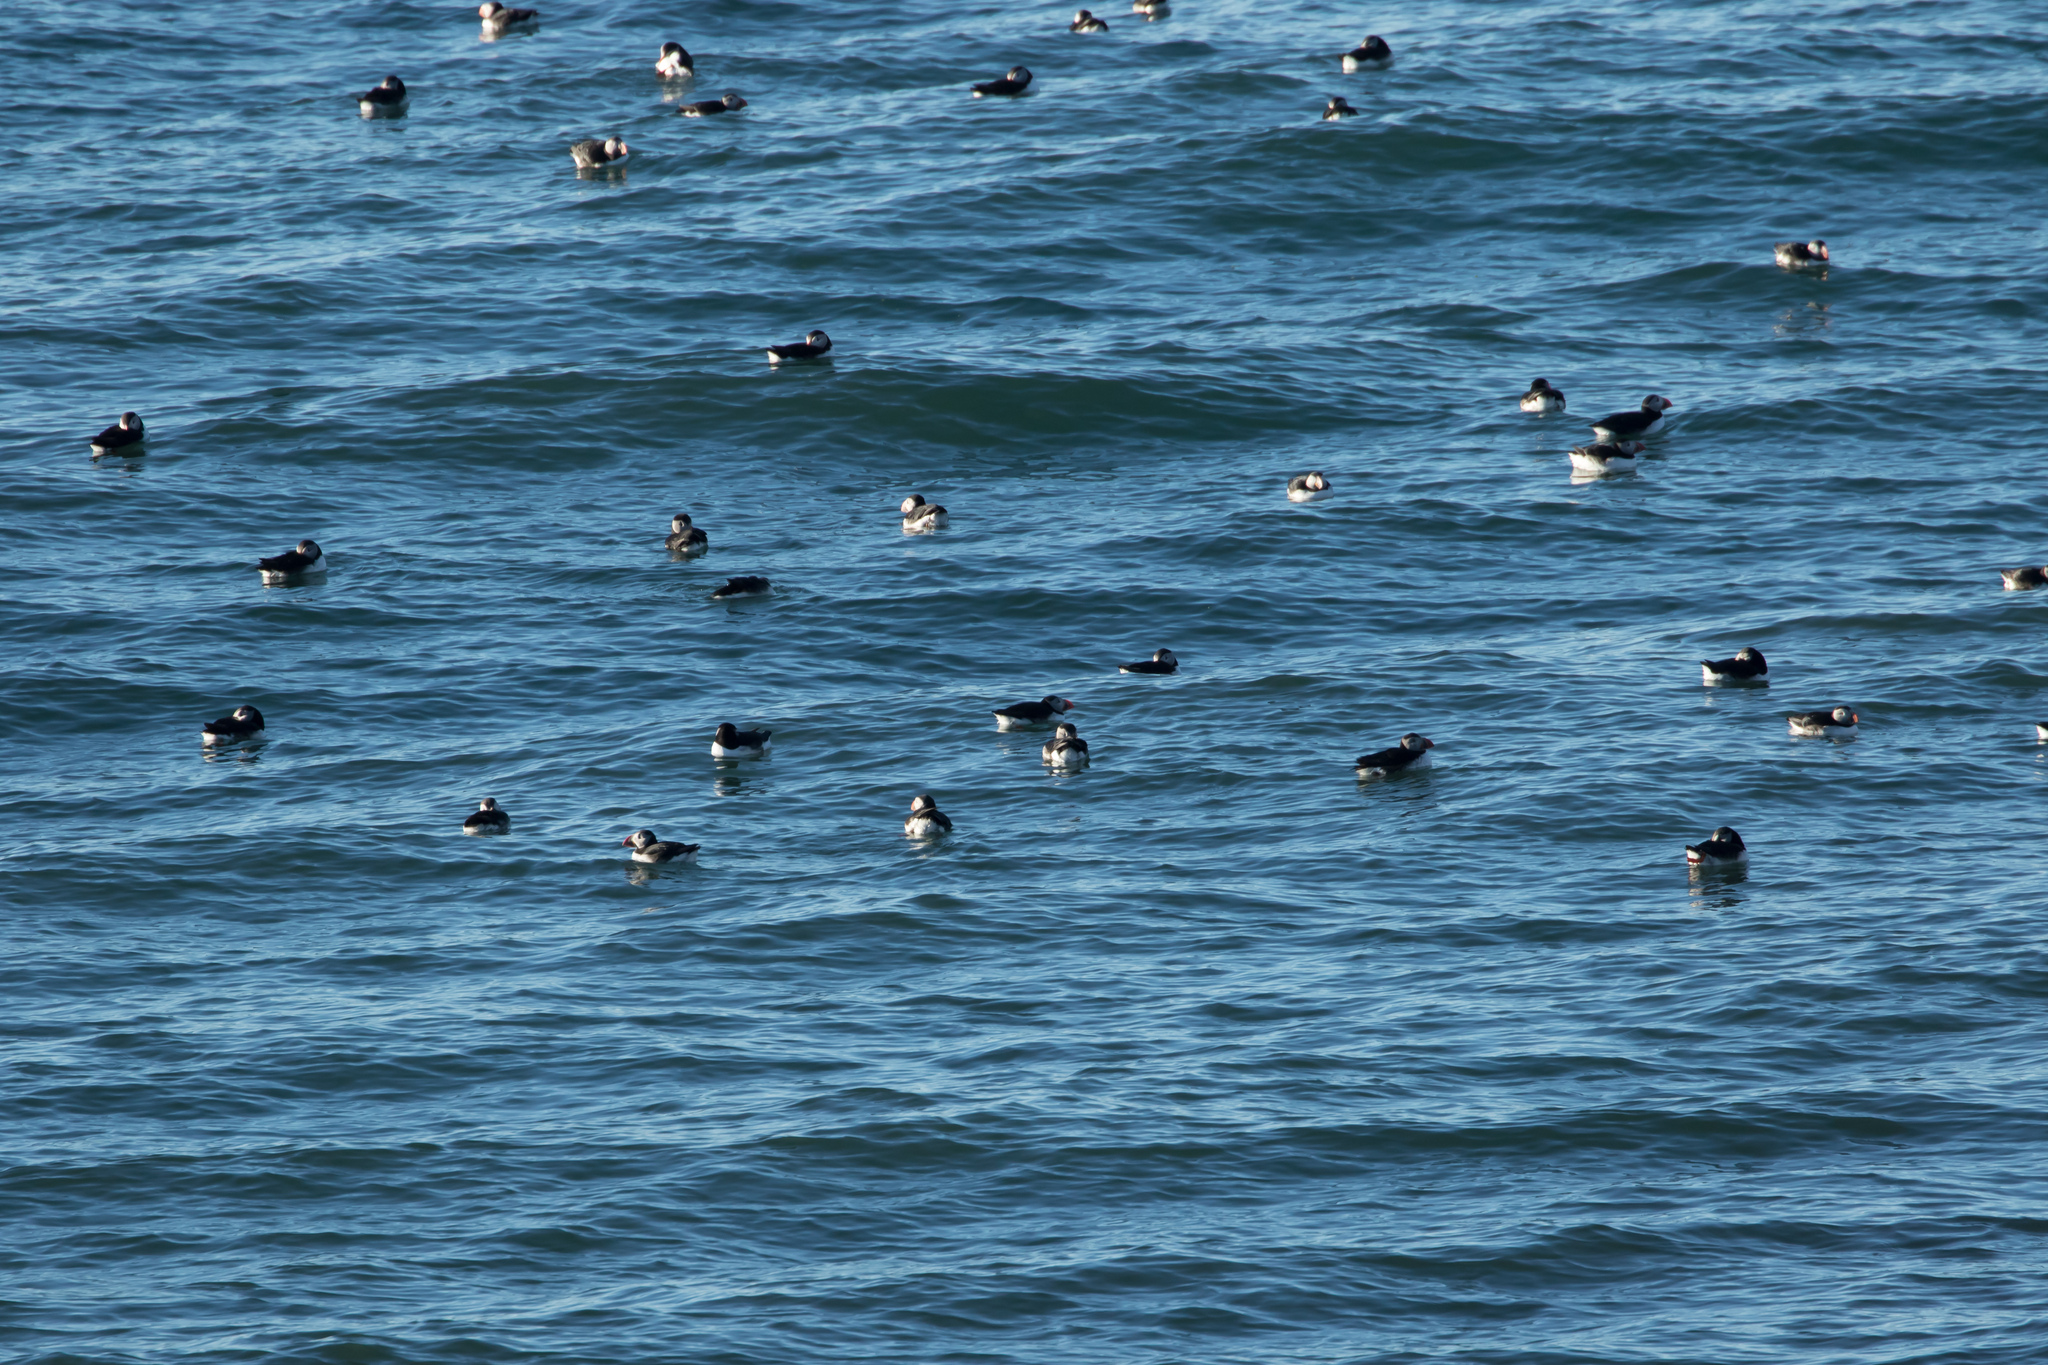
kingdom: Animalia
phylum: Chordata
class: Aves
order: Charadriiformes
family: Alcidae
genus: Fratercula
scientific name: Fratercula arctica
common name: Atlantic puffin
